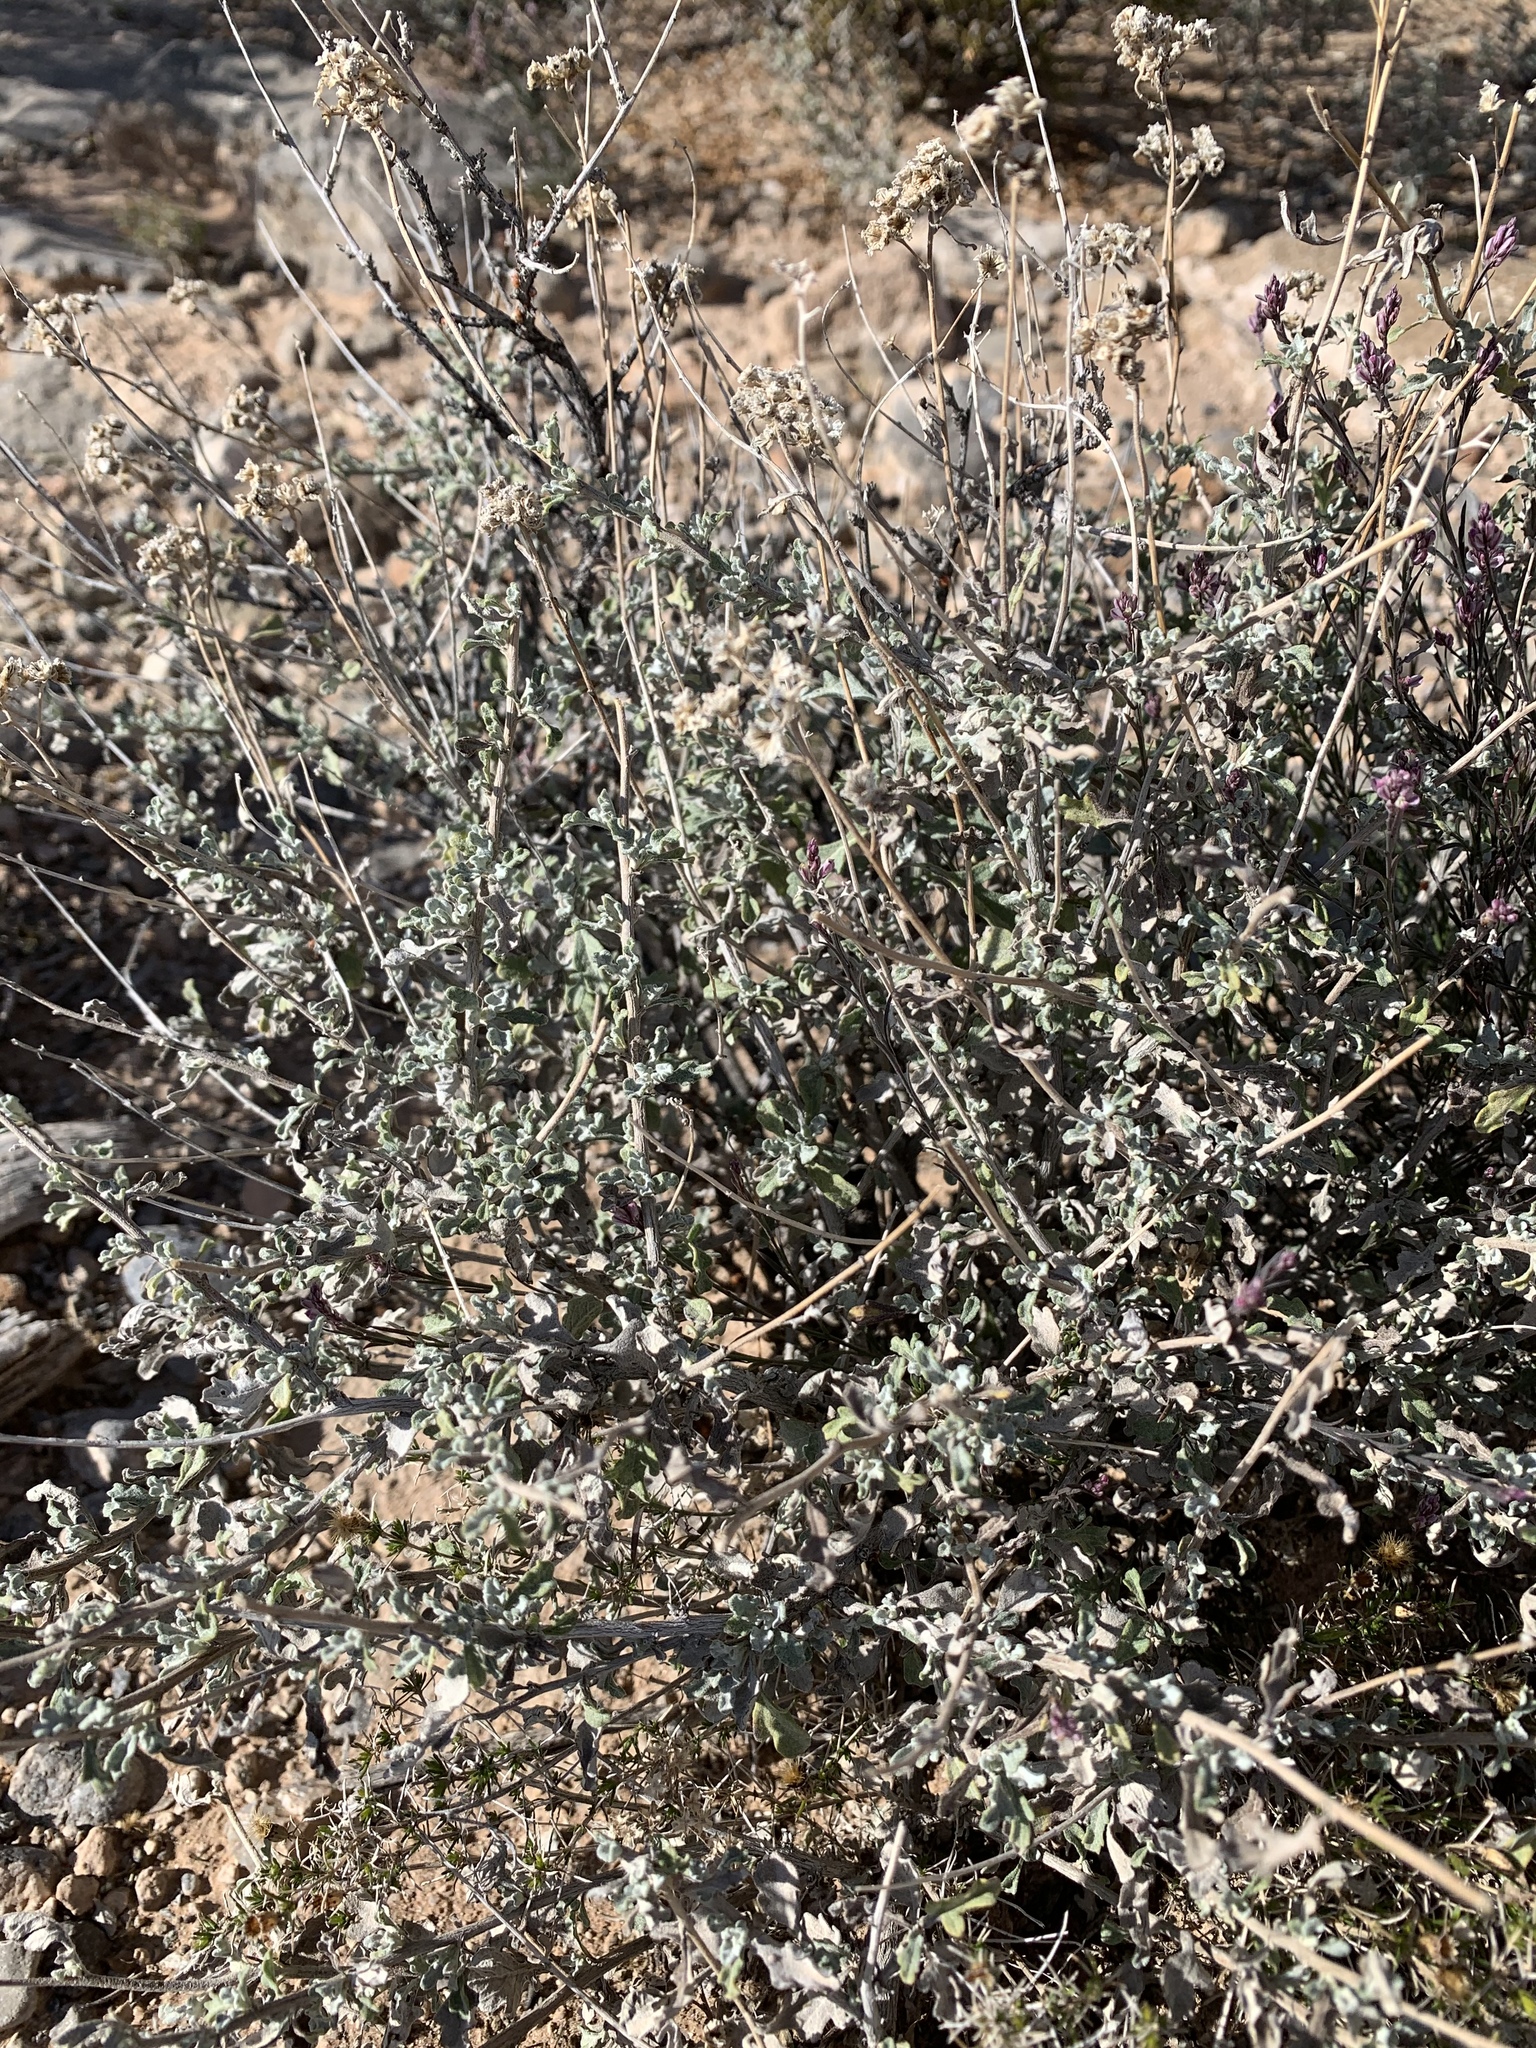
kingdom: Plantae
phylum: Tracheophyta
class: Magnoliopsida
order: Asterales
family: Asteraceae
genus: Parthenium
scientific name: Parthenium incanum
